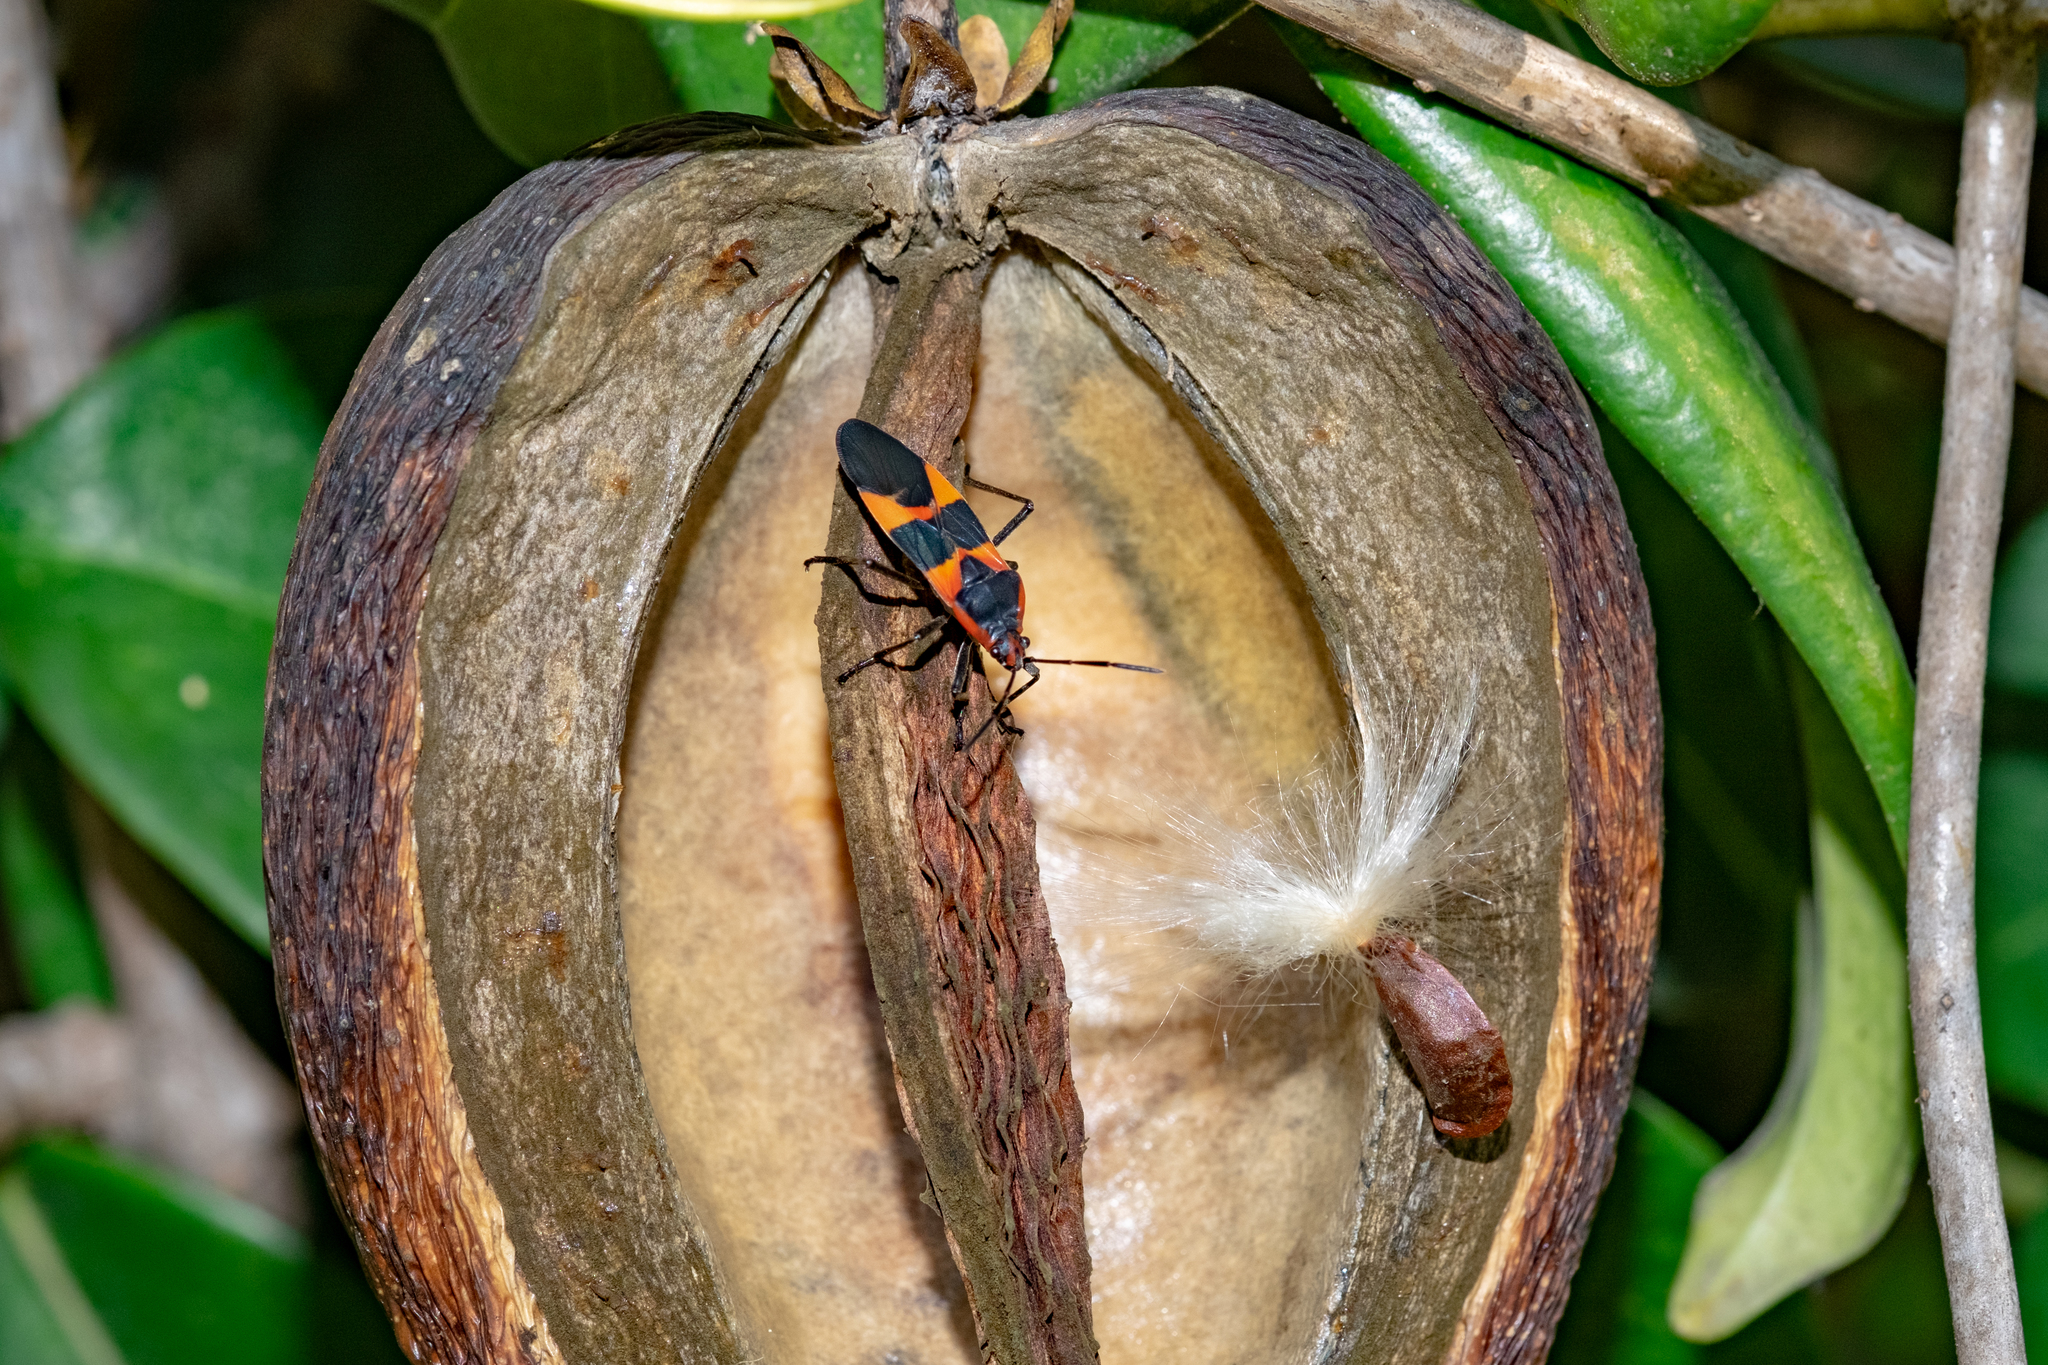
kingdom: Animalia
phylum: Arthropoda
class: Insecta
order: Hemiptera
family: Lygaeidae
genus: Oncopeltus
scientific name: Oncopeltus fasciatus
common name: Large milkweed bug
